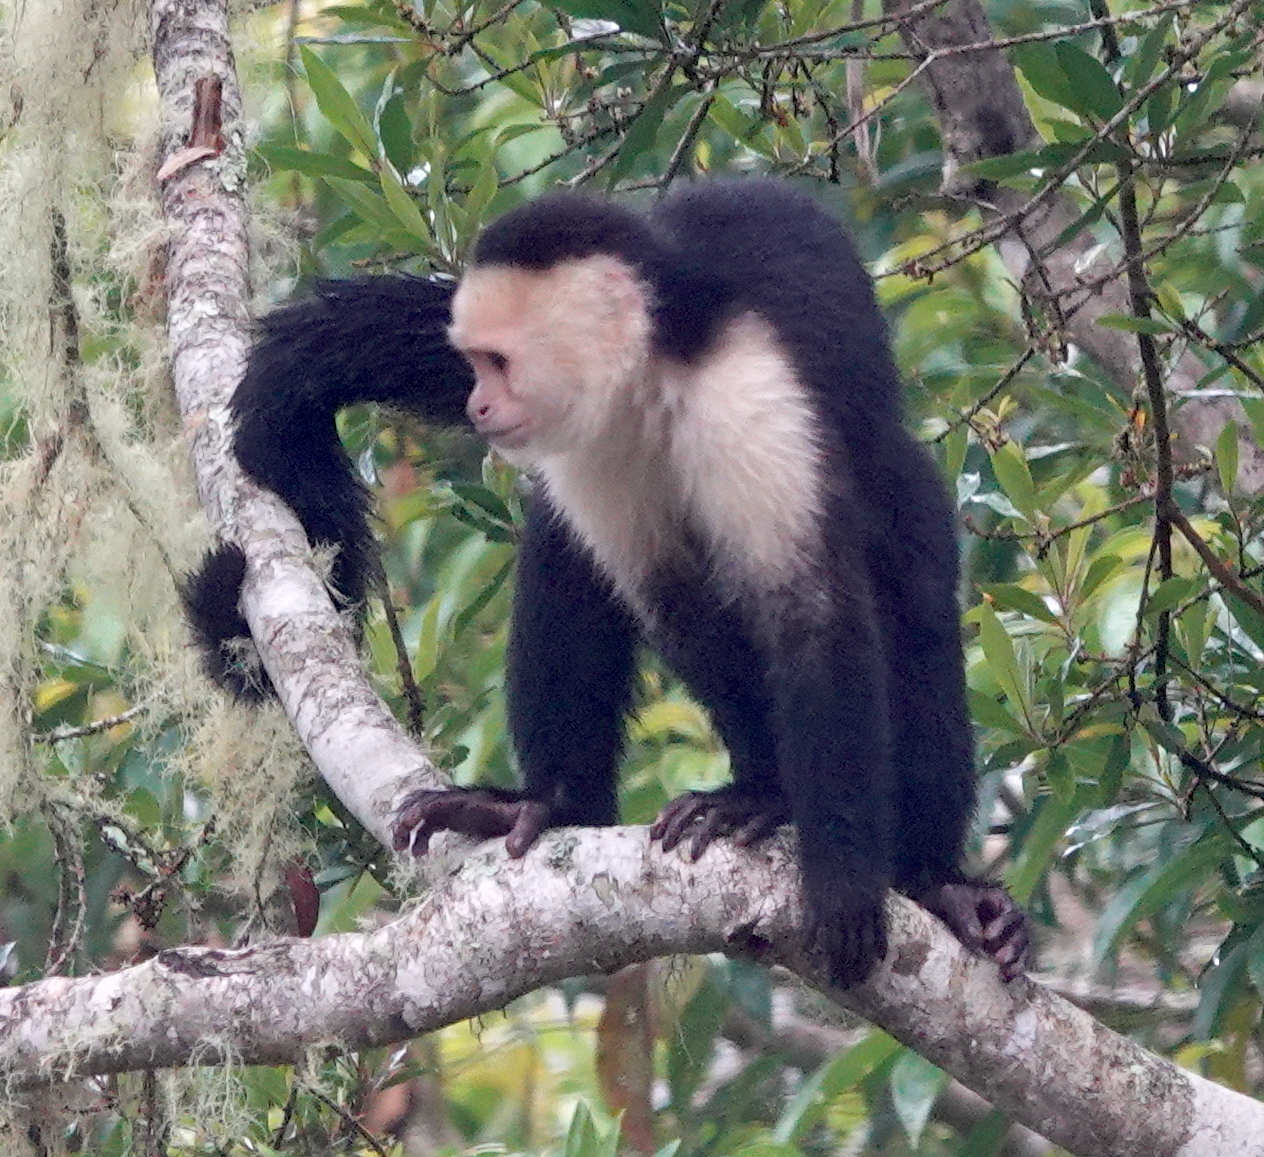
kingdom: Animalia
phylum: Chordata
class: Mammalia
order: Primates
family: Cebidae
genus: Cebus
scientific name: Cebus imitator
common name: Panamanian white-faced capuchin
